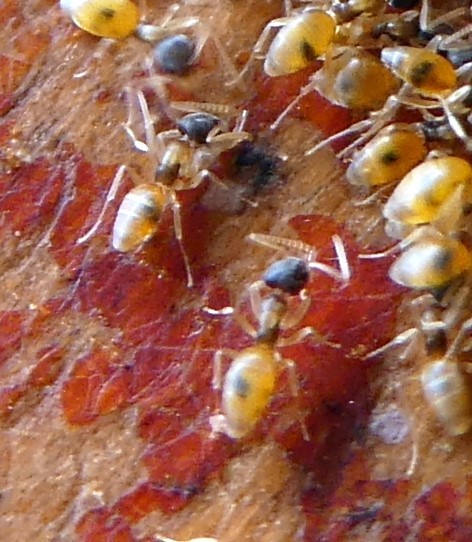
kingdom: Animalia
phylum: Arthropoda
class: Insecta
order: Hymenoptera
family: Formicidae
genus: Tapinoma
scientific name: Tapinoma melanocephalum
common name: Ghost ant
